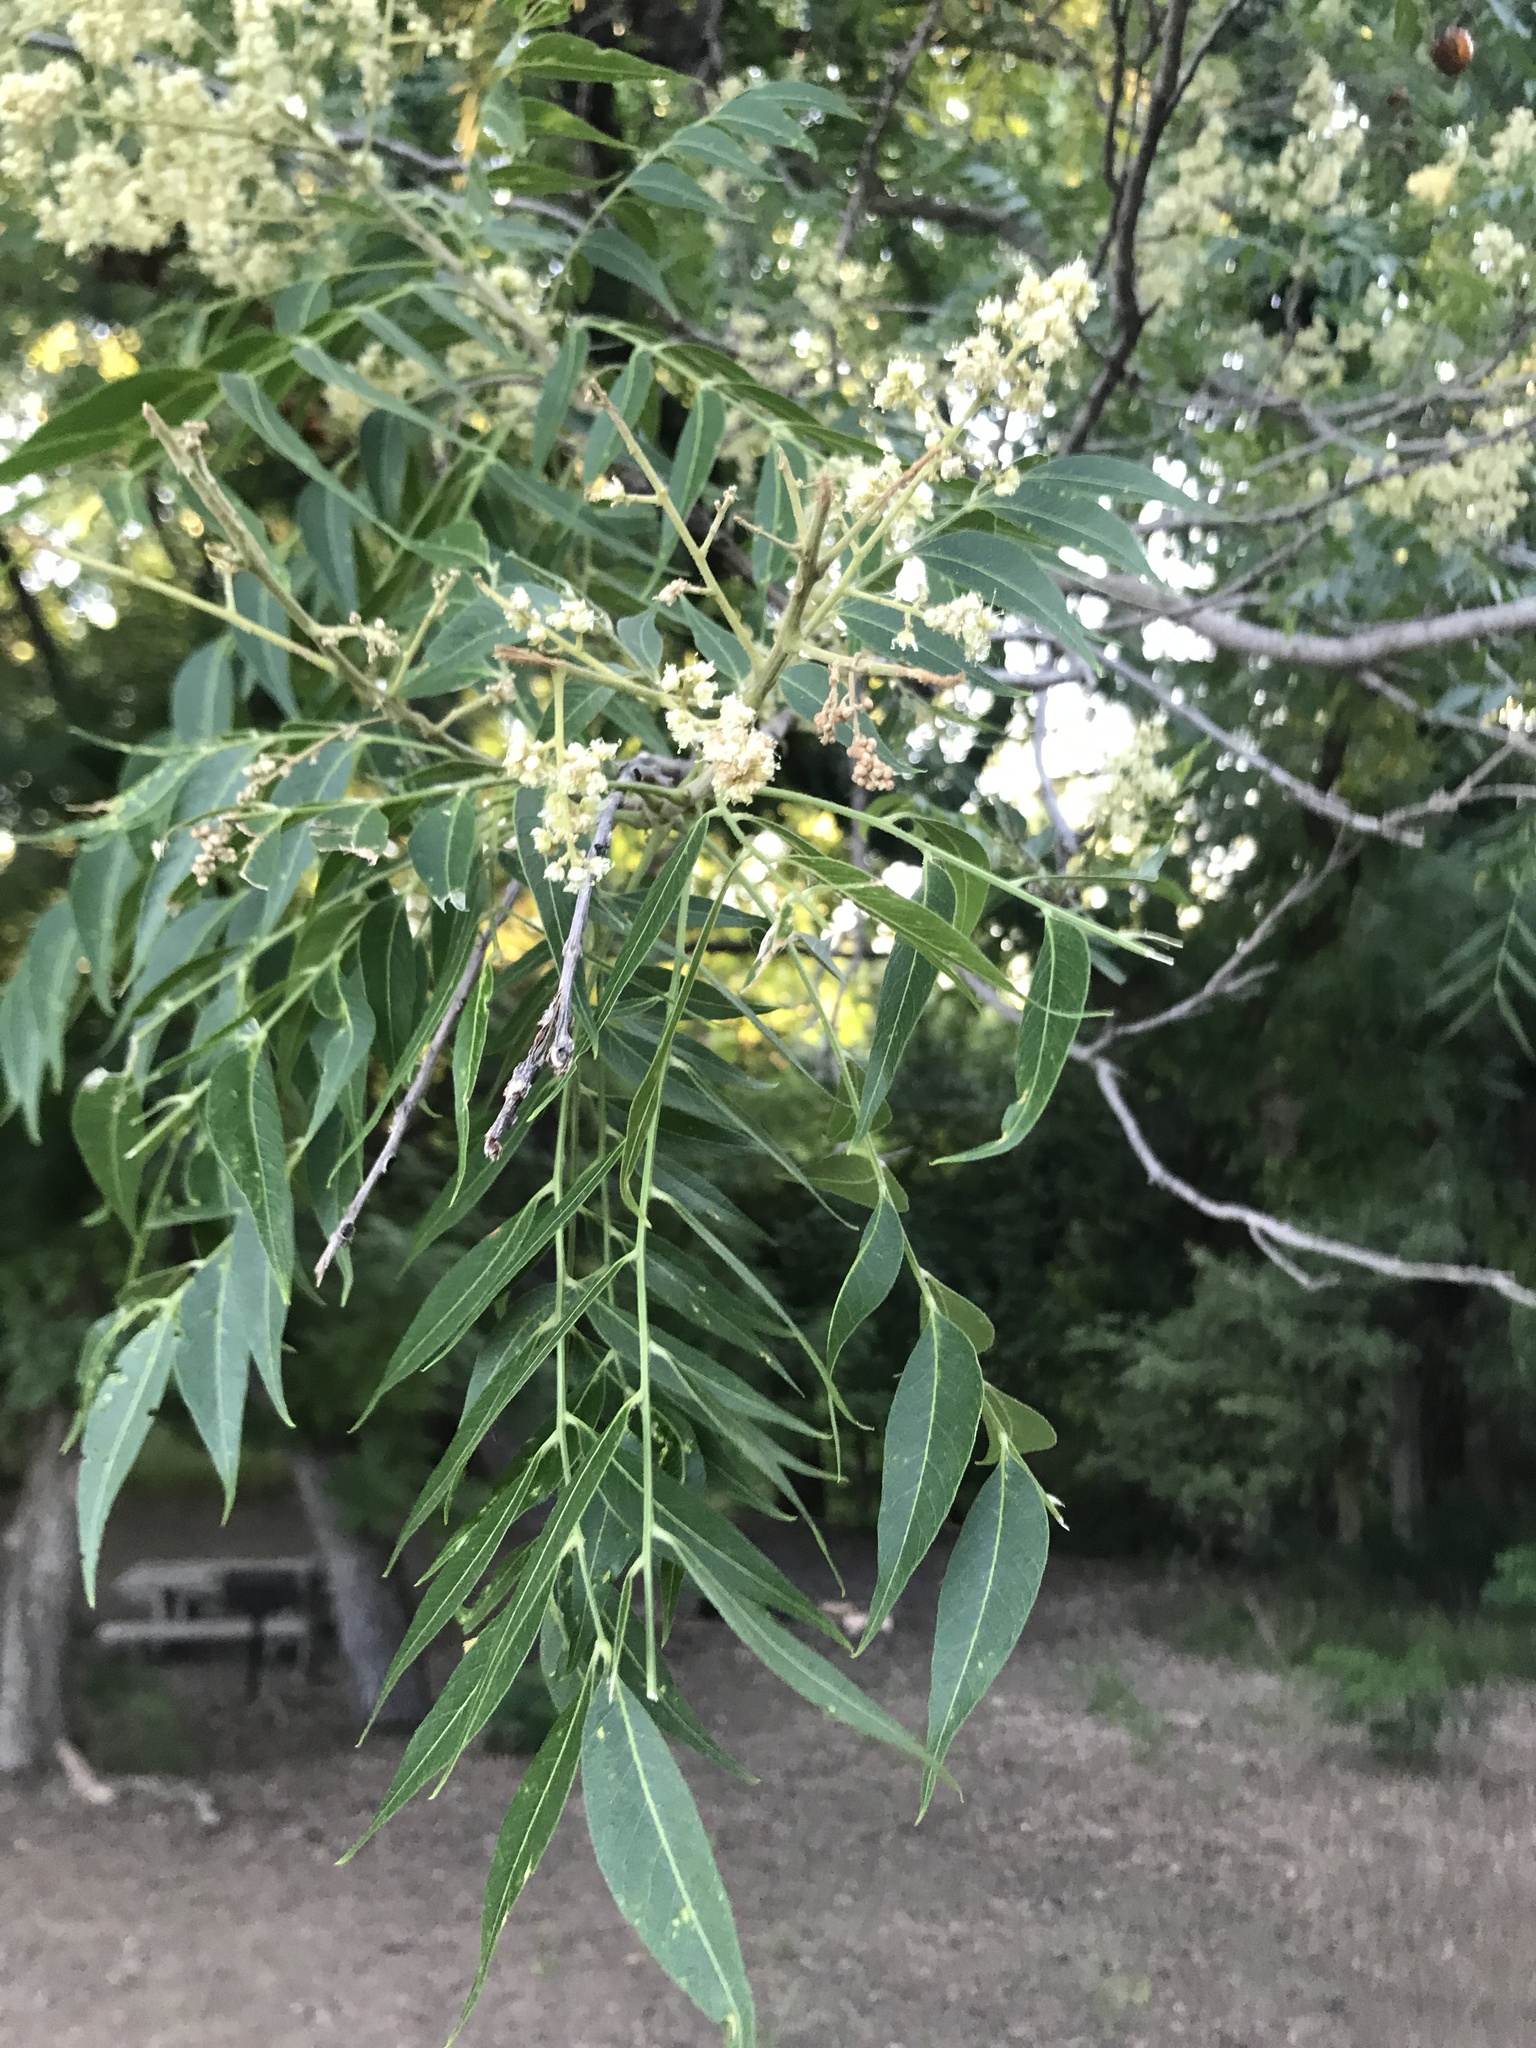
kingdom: Plantae
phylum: Tracheophyta
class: Magnoliopsida
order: Sapindales
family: Sapindaceae
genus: Sapindus
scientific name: Sapindus drummondii
